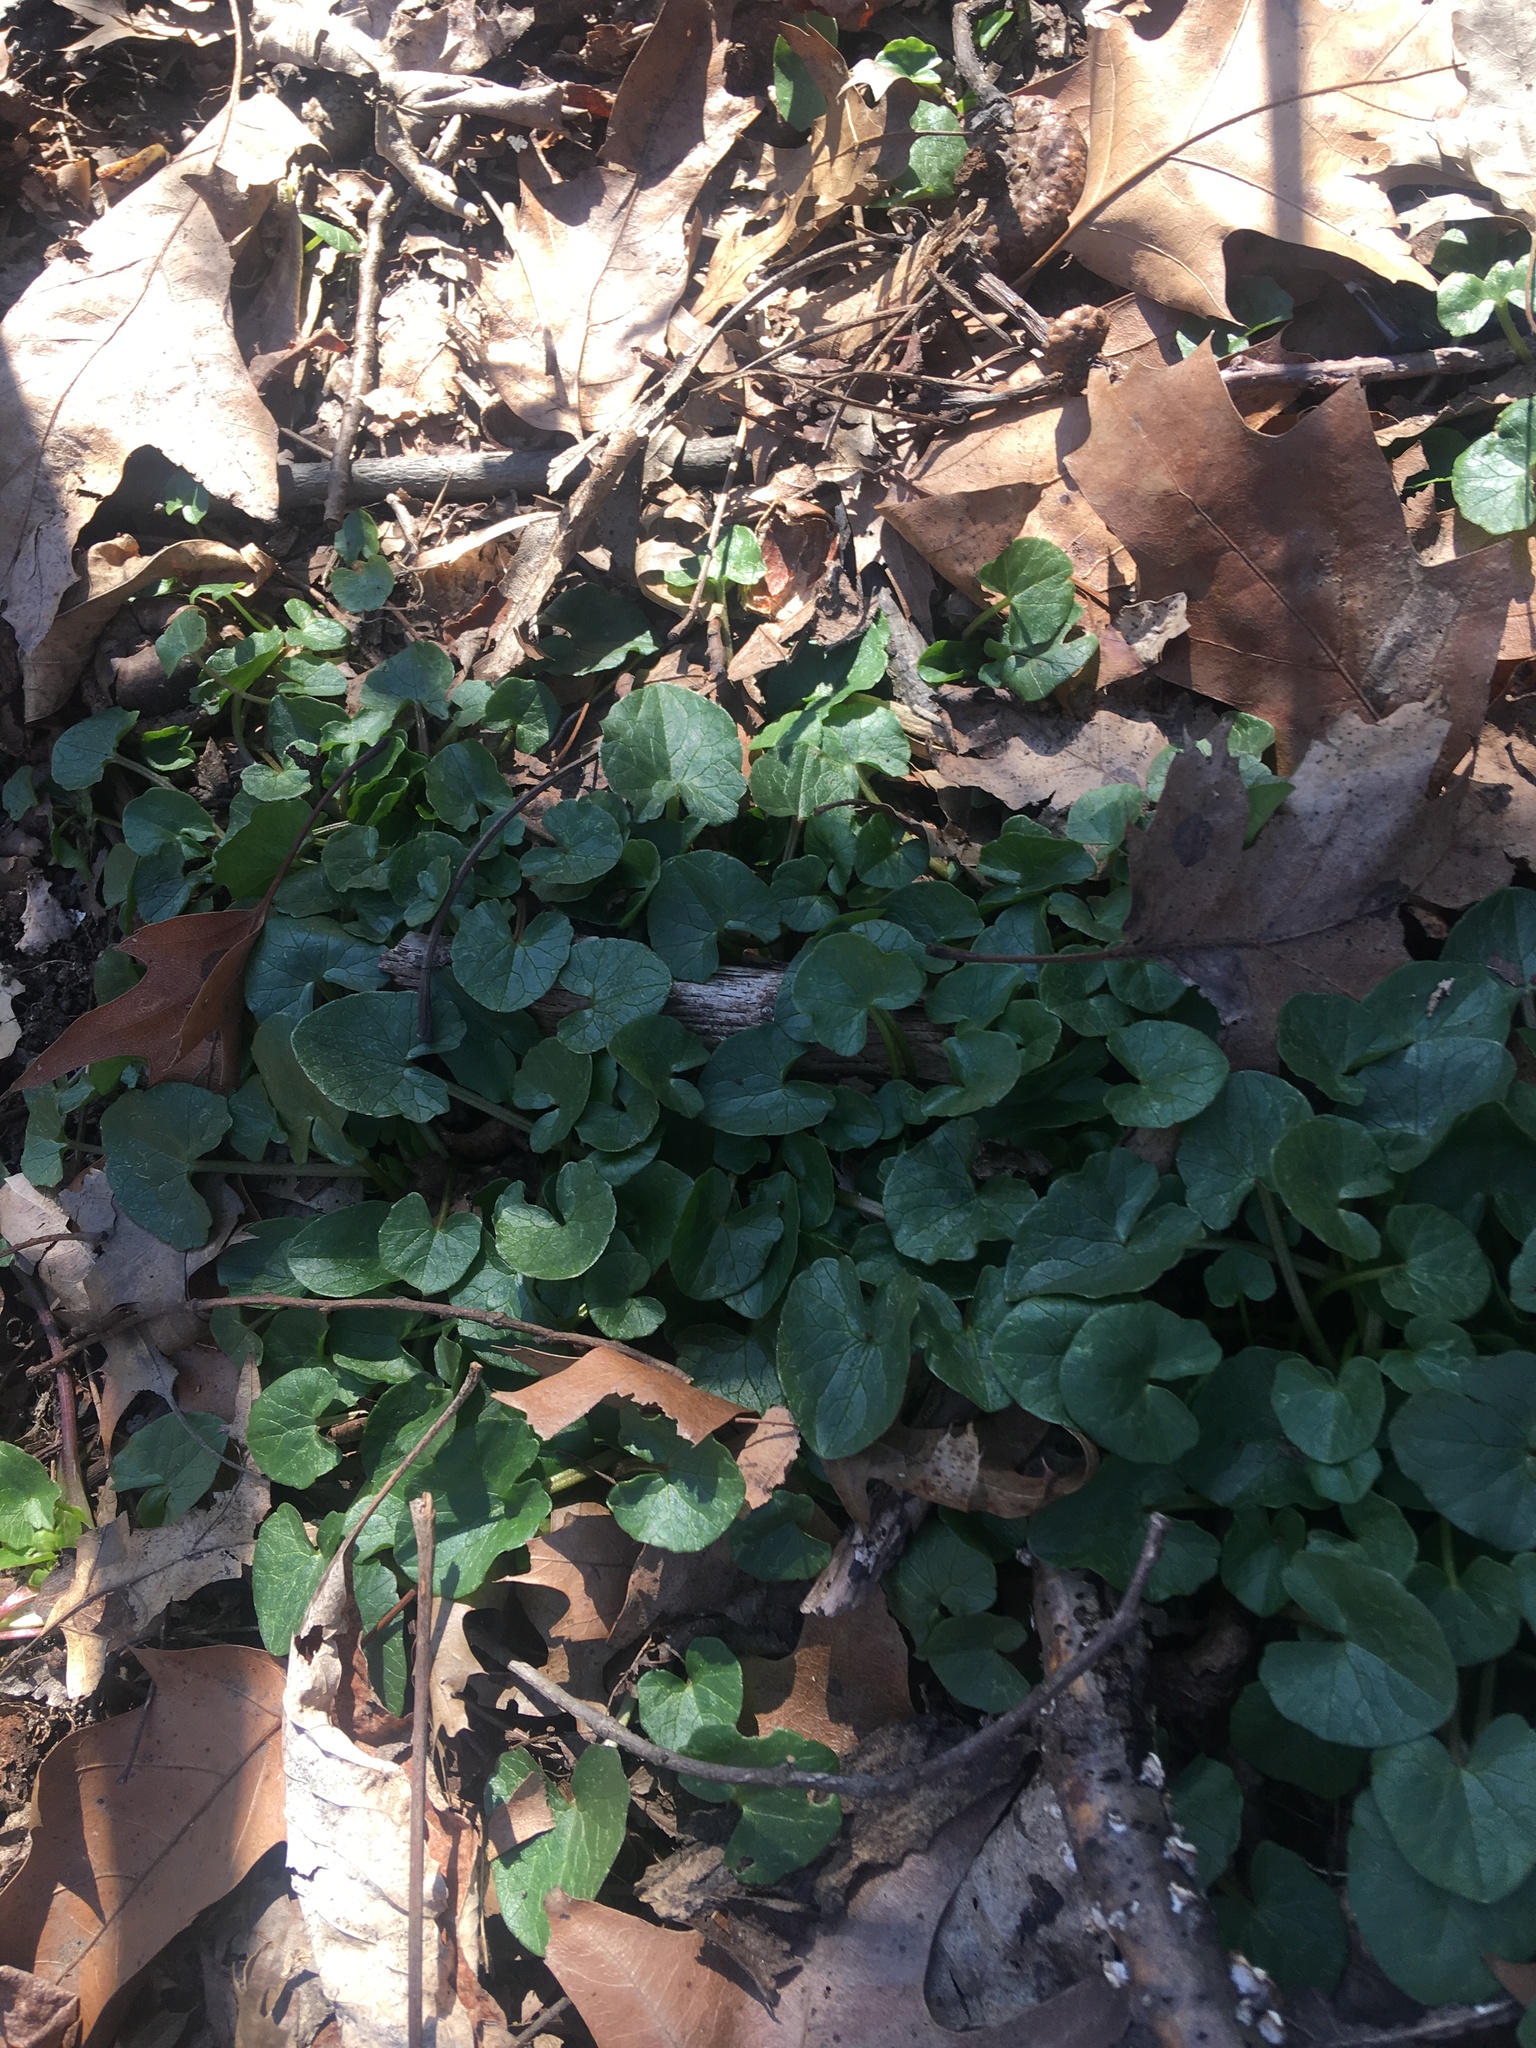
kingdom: Plantae
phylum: Tracheophyta
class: Magnoliopsida
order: Ranunculales
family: Ranunculaceae
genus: Ficaria
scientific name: Ficaria verna
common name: Lesser celandine
